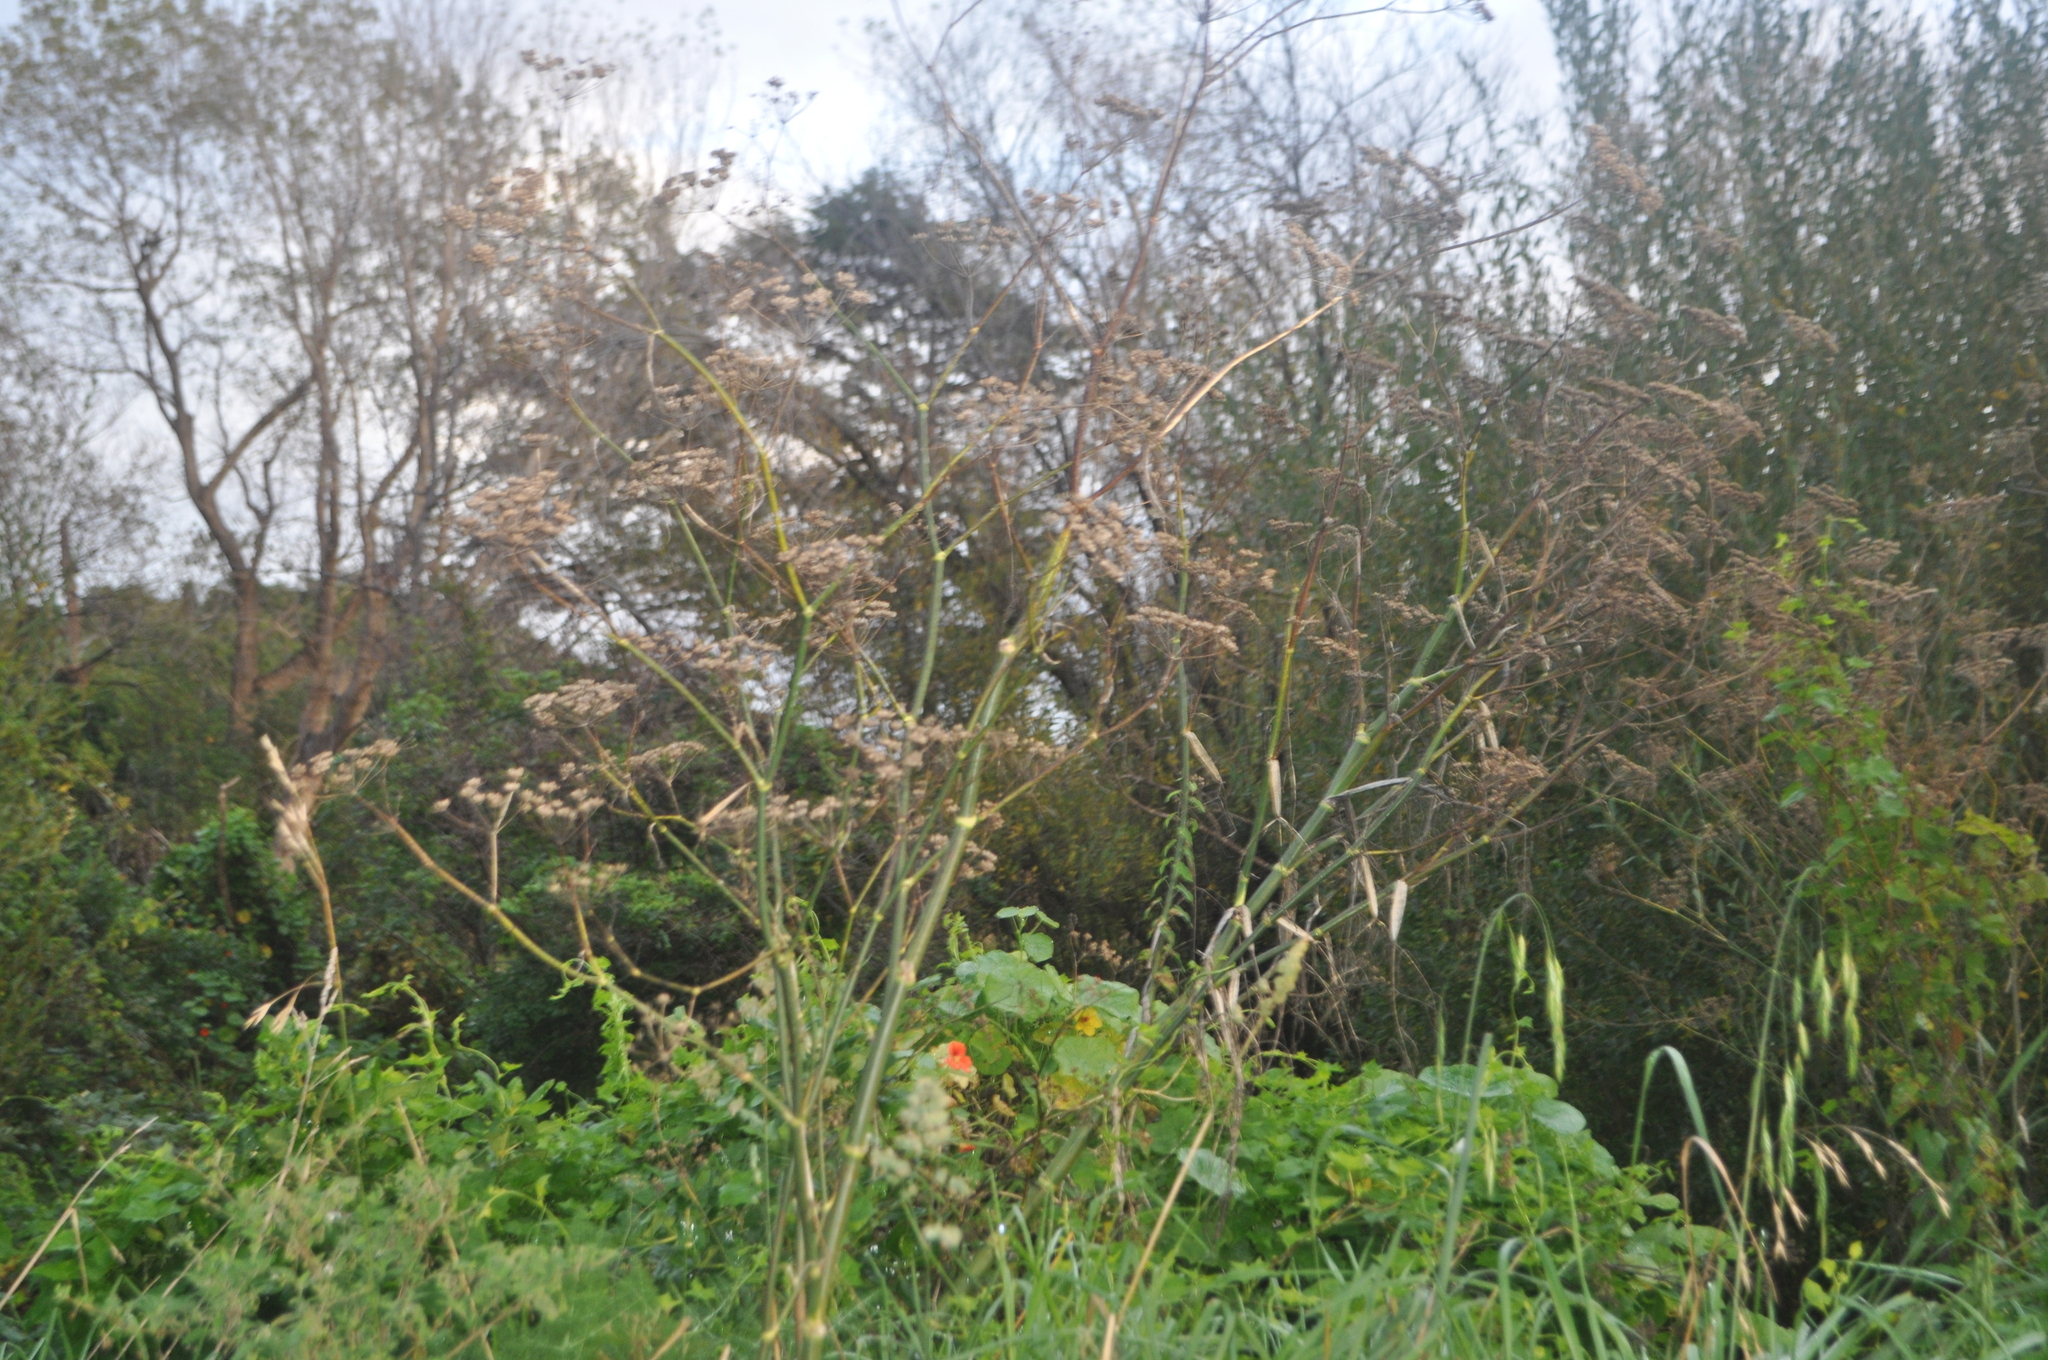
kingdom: Plantae
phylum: Tracheophyta
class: Magnoliopsida
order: Apiales
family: Apiaceae
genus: Foeniculum
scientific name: Foeniculum vulgare
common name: Fennel
